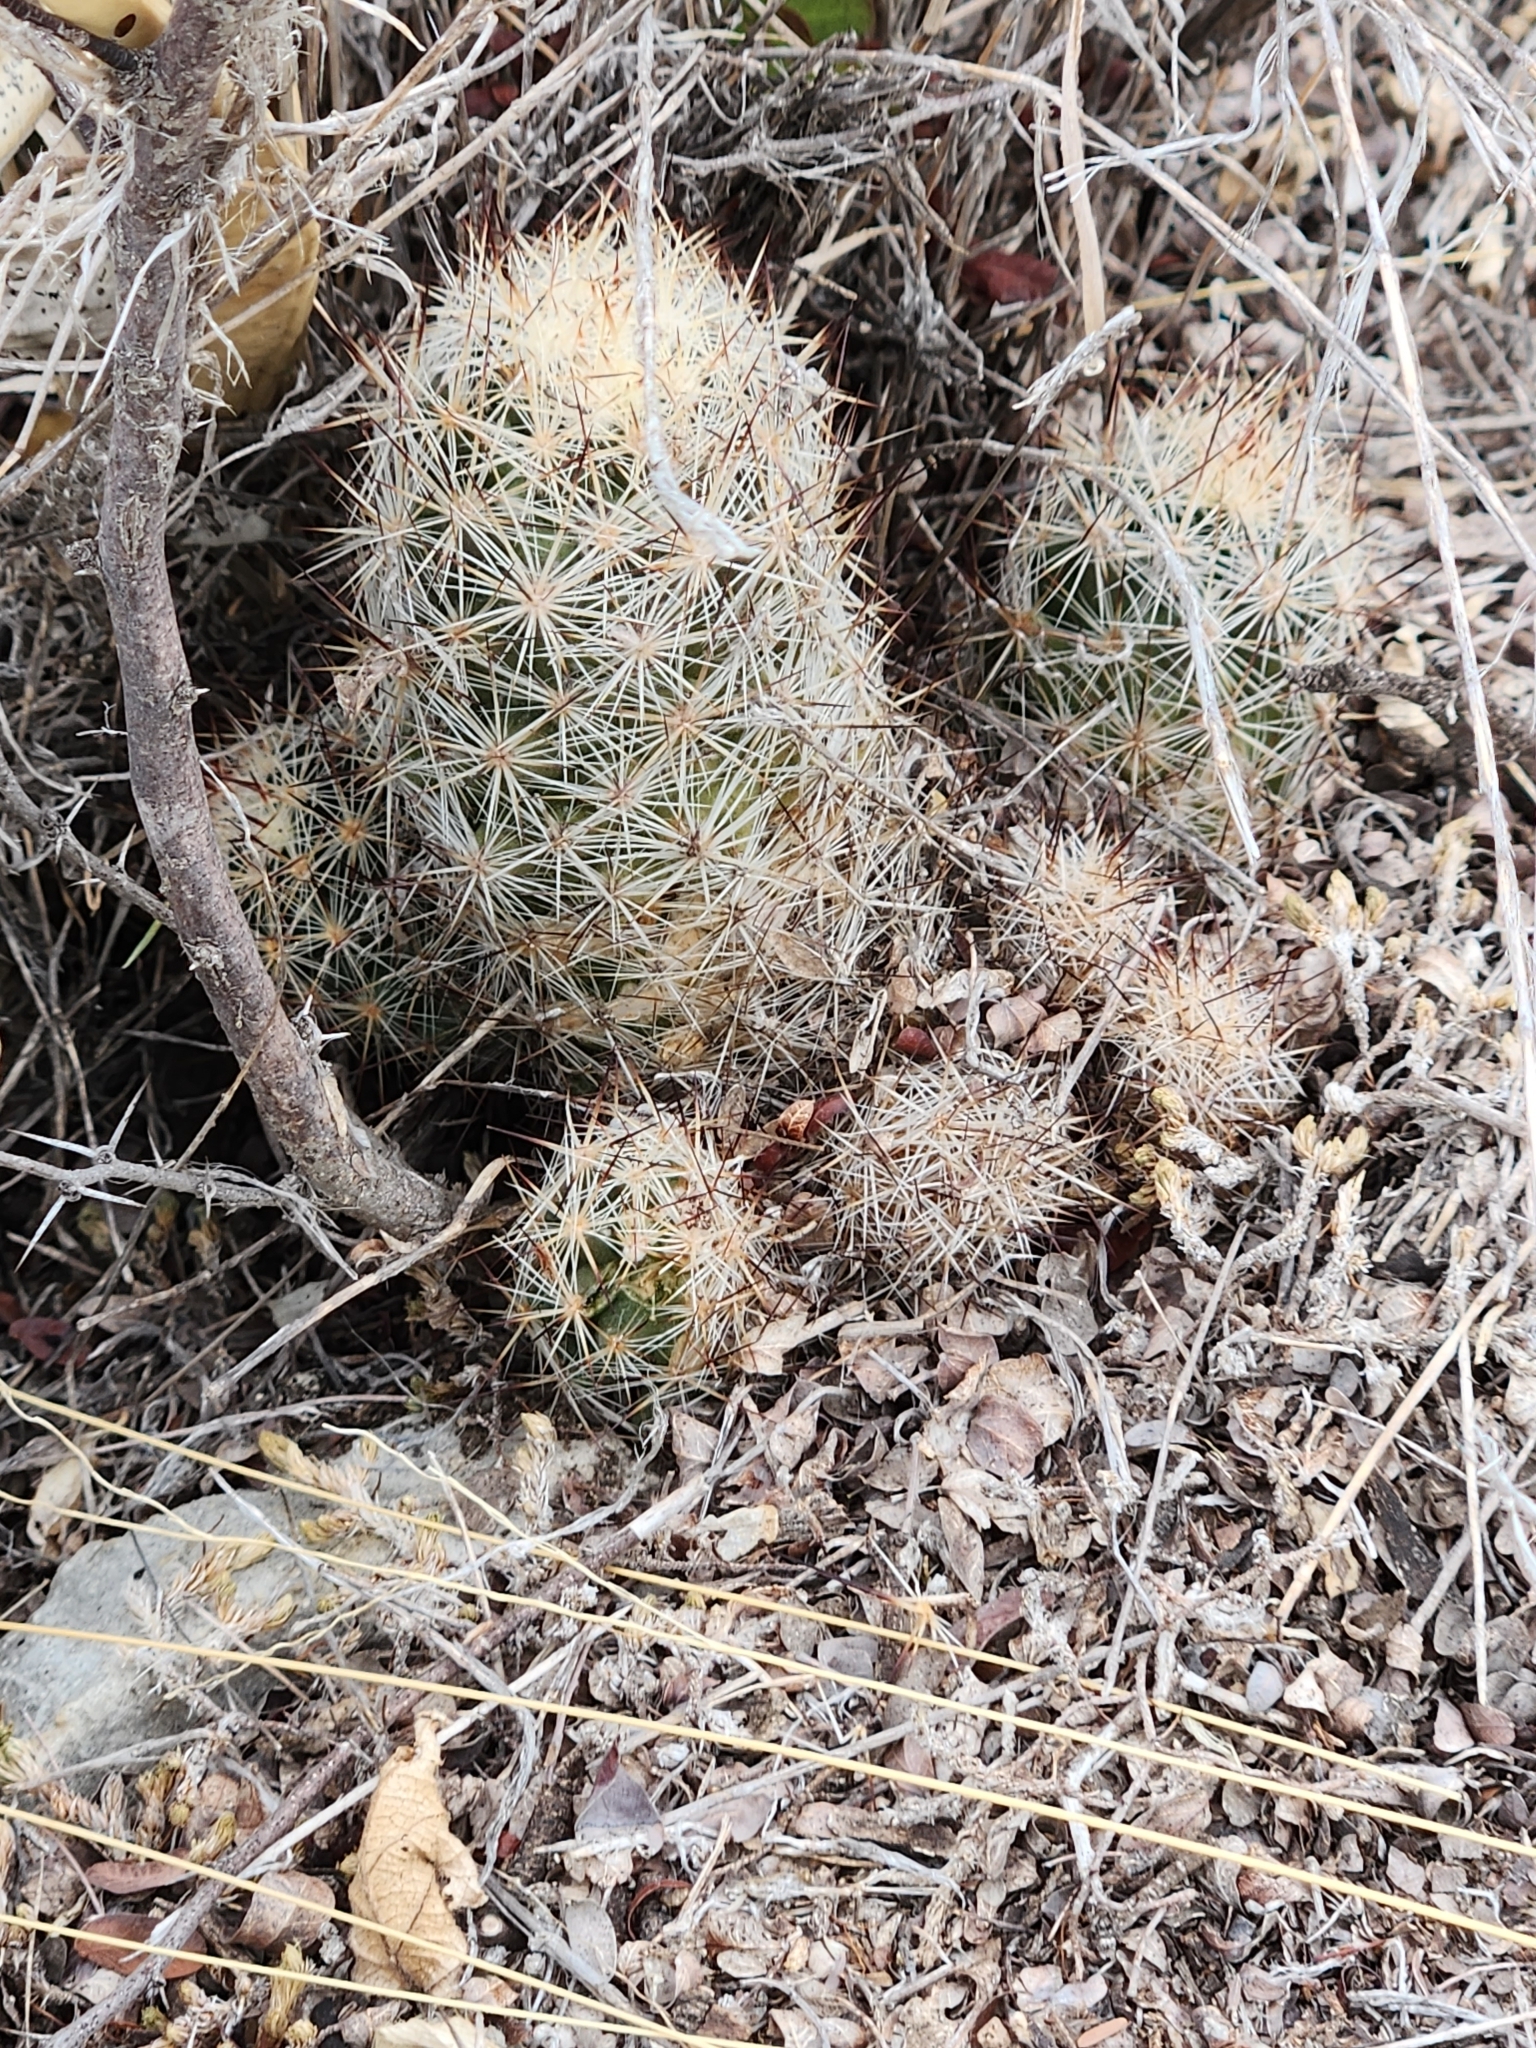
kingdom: Plantae
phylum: Tracheophyta
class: Magnoliopsida
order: Caryophyllales
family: Cactaceae
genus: Pelecyphora
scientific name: Pelecyphora emskoetteriana
